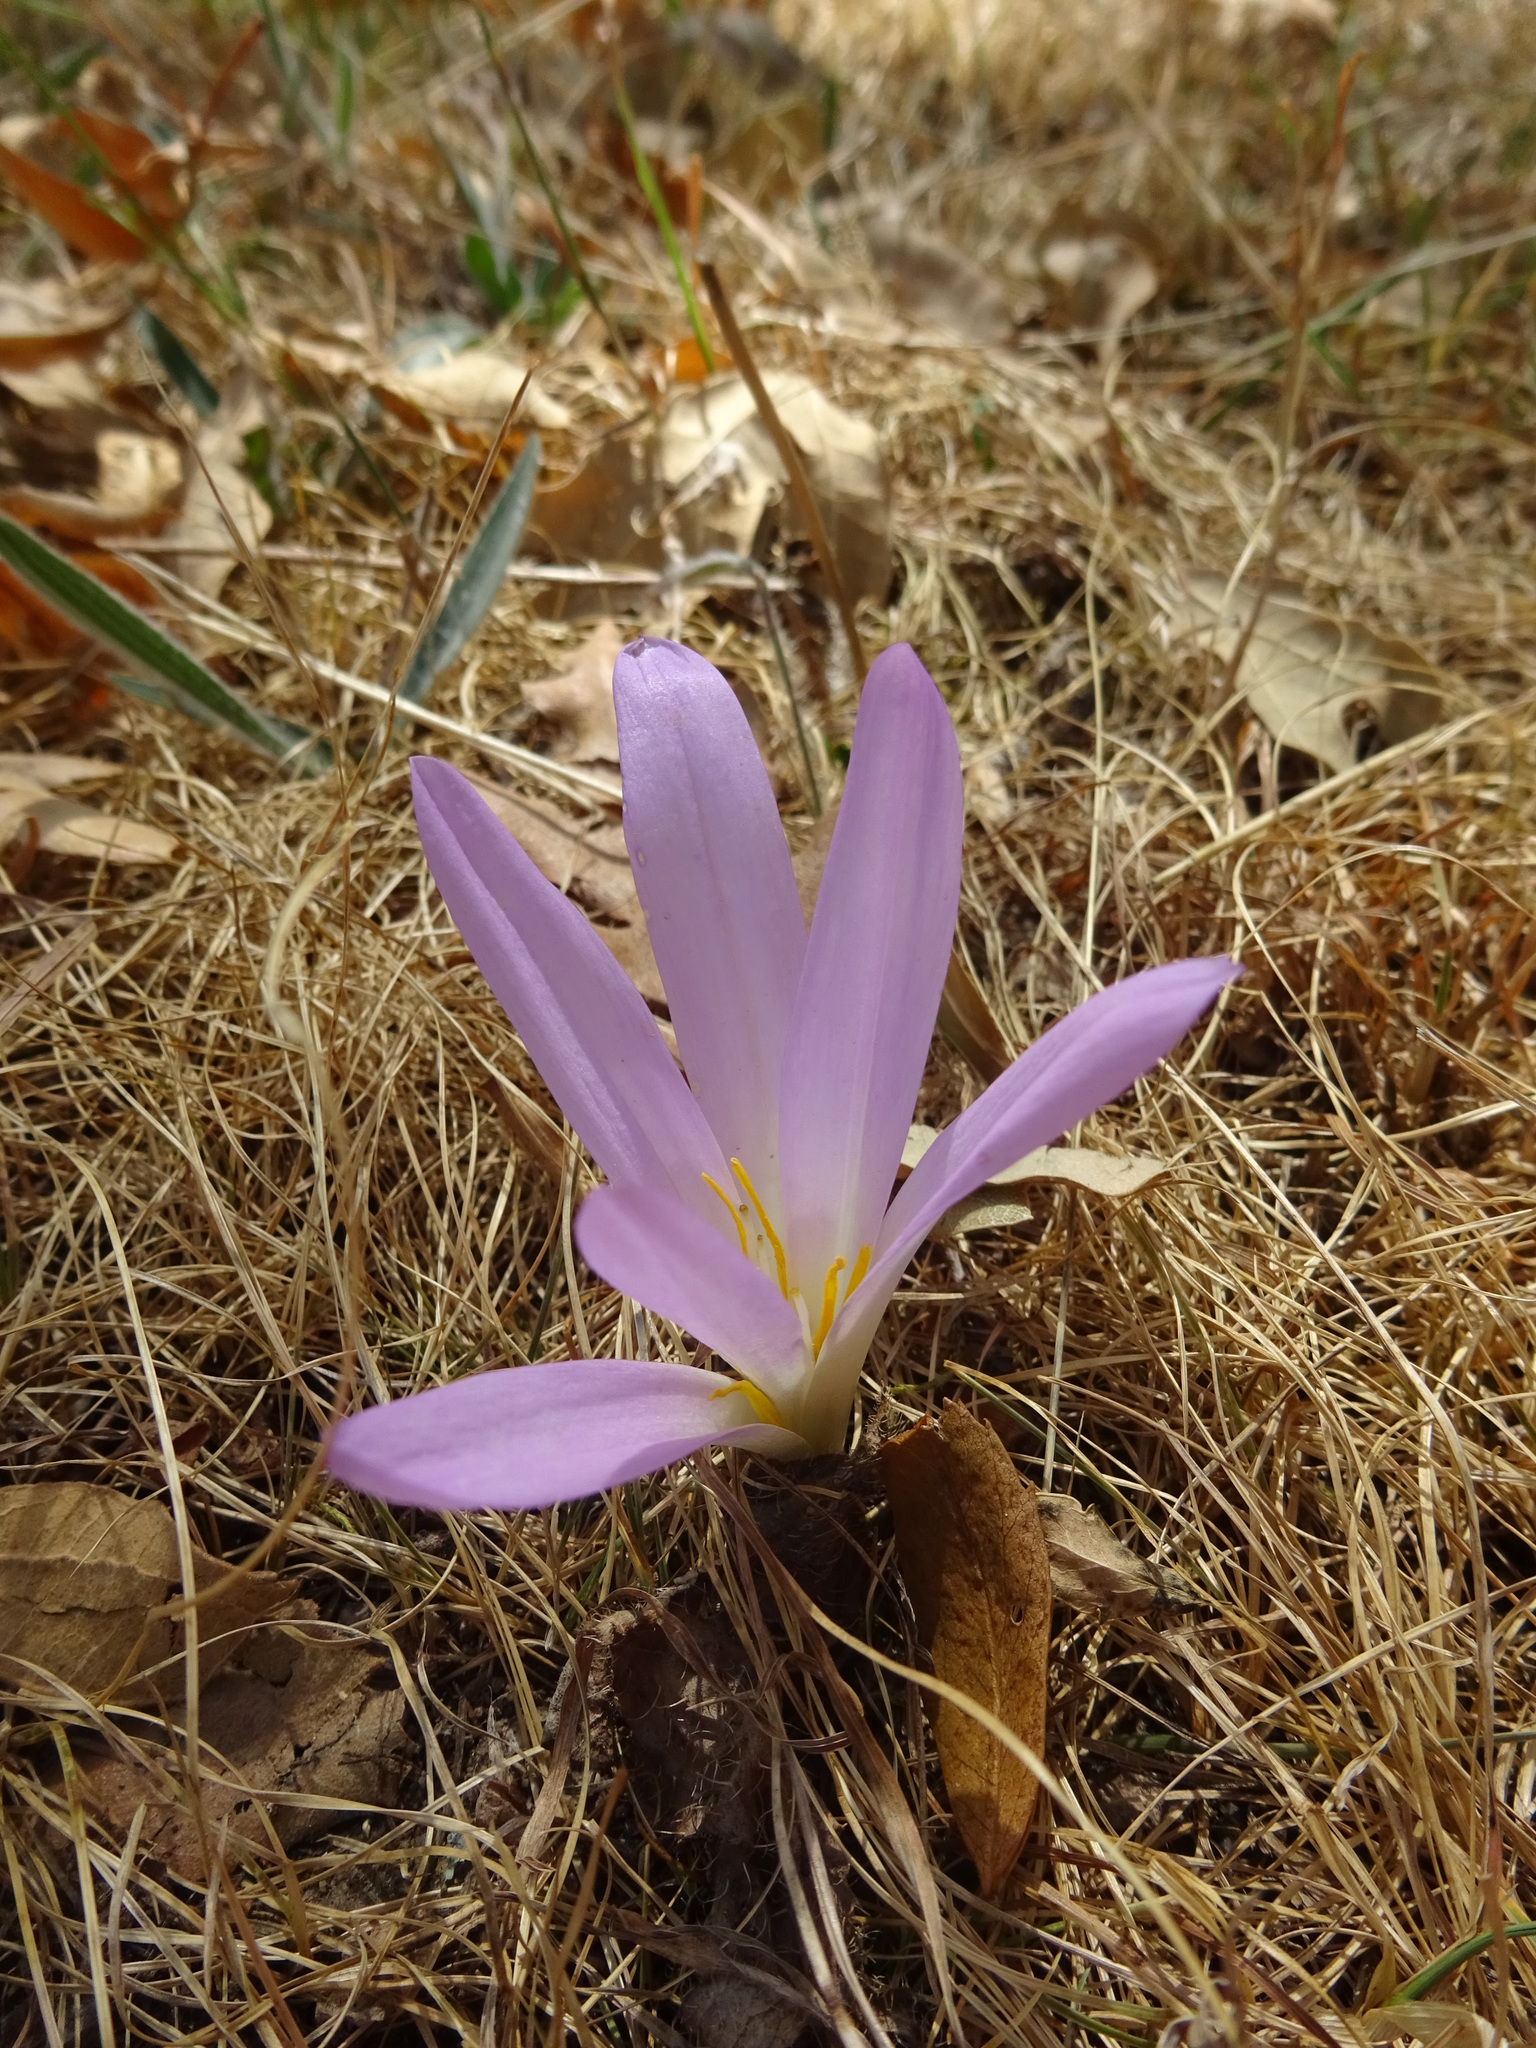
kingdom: Plantae
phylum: Tracheophyta
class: Liliopsida
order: Liliales
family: Colchicaceae
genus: Colchicum
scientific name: Colchicum montanum
